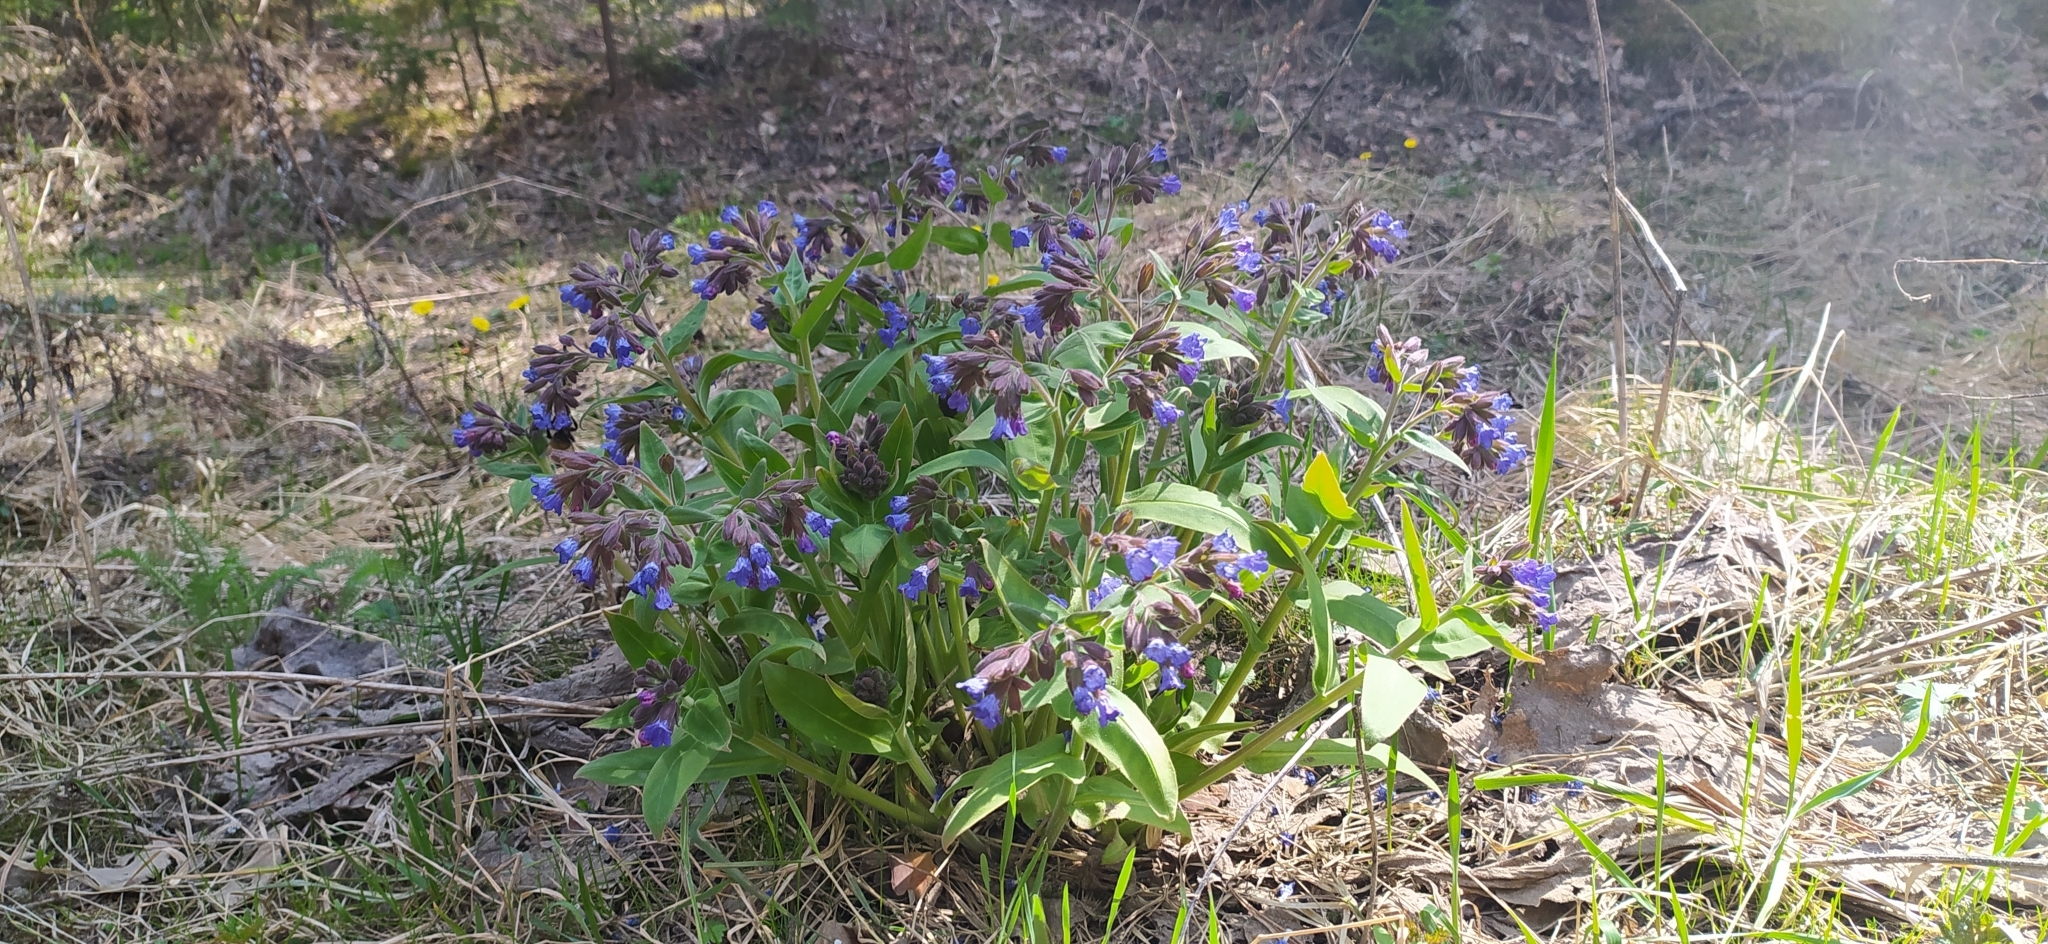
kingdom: Plantae
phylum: Tracheophyta
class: Magnoliopsida
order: Boraginales
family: Boraginaceae
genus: Pulmonaria
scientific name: Pulmonaria mollis
